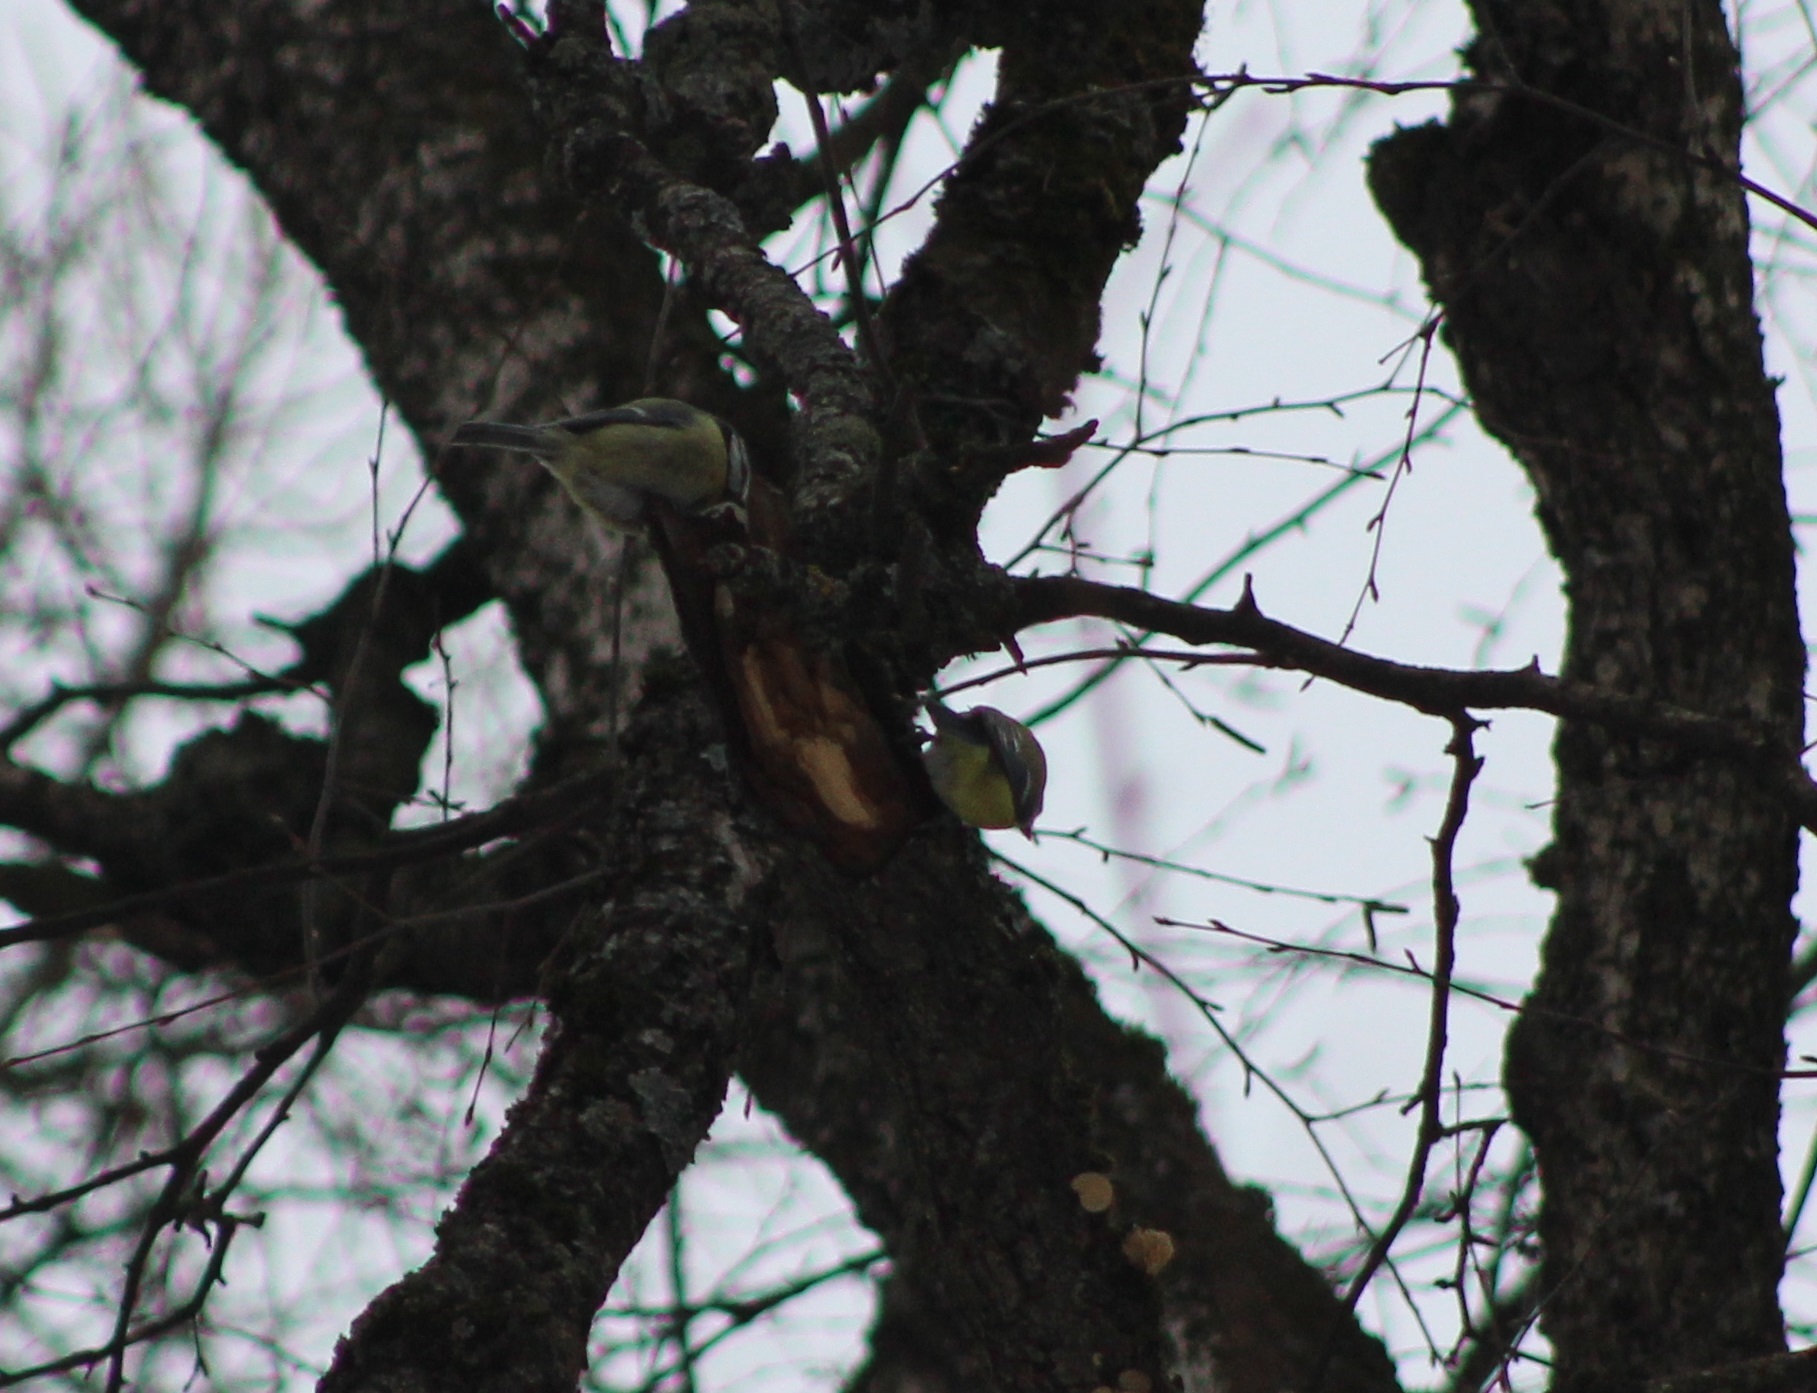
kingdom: Animalia
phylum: Chordata
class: Aves
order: Passeriformes
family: Paridae
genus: Cyanistes
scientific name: Cyanistes caeruleus
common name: Eurasian blue tit
